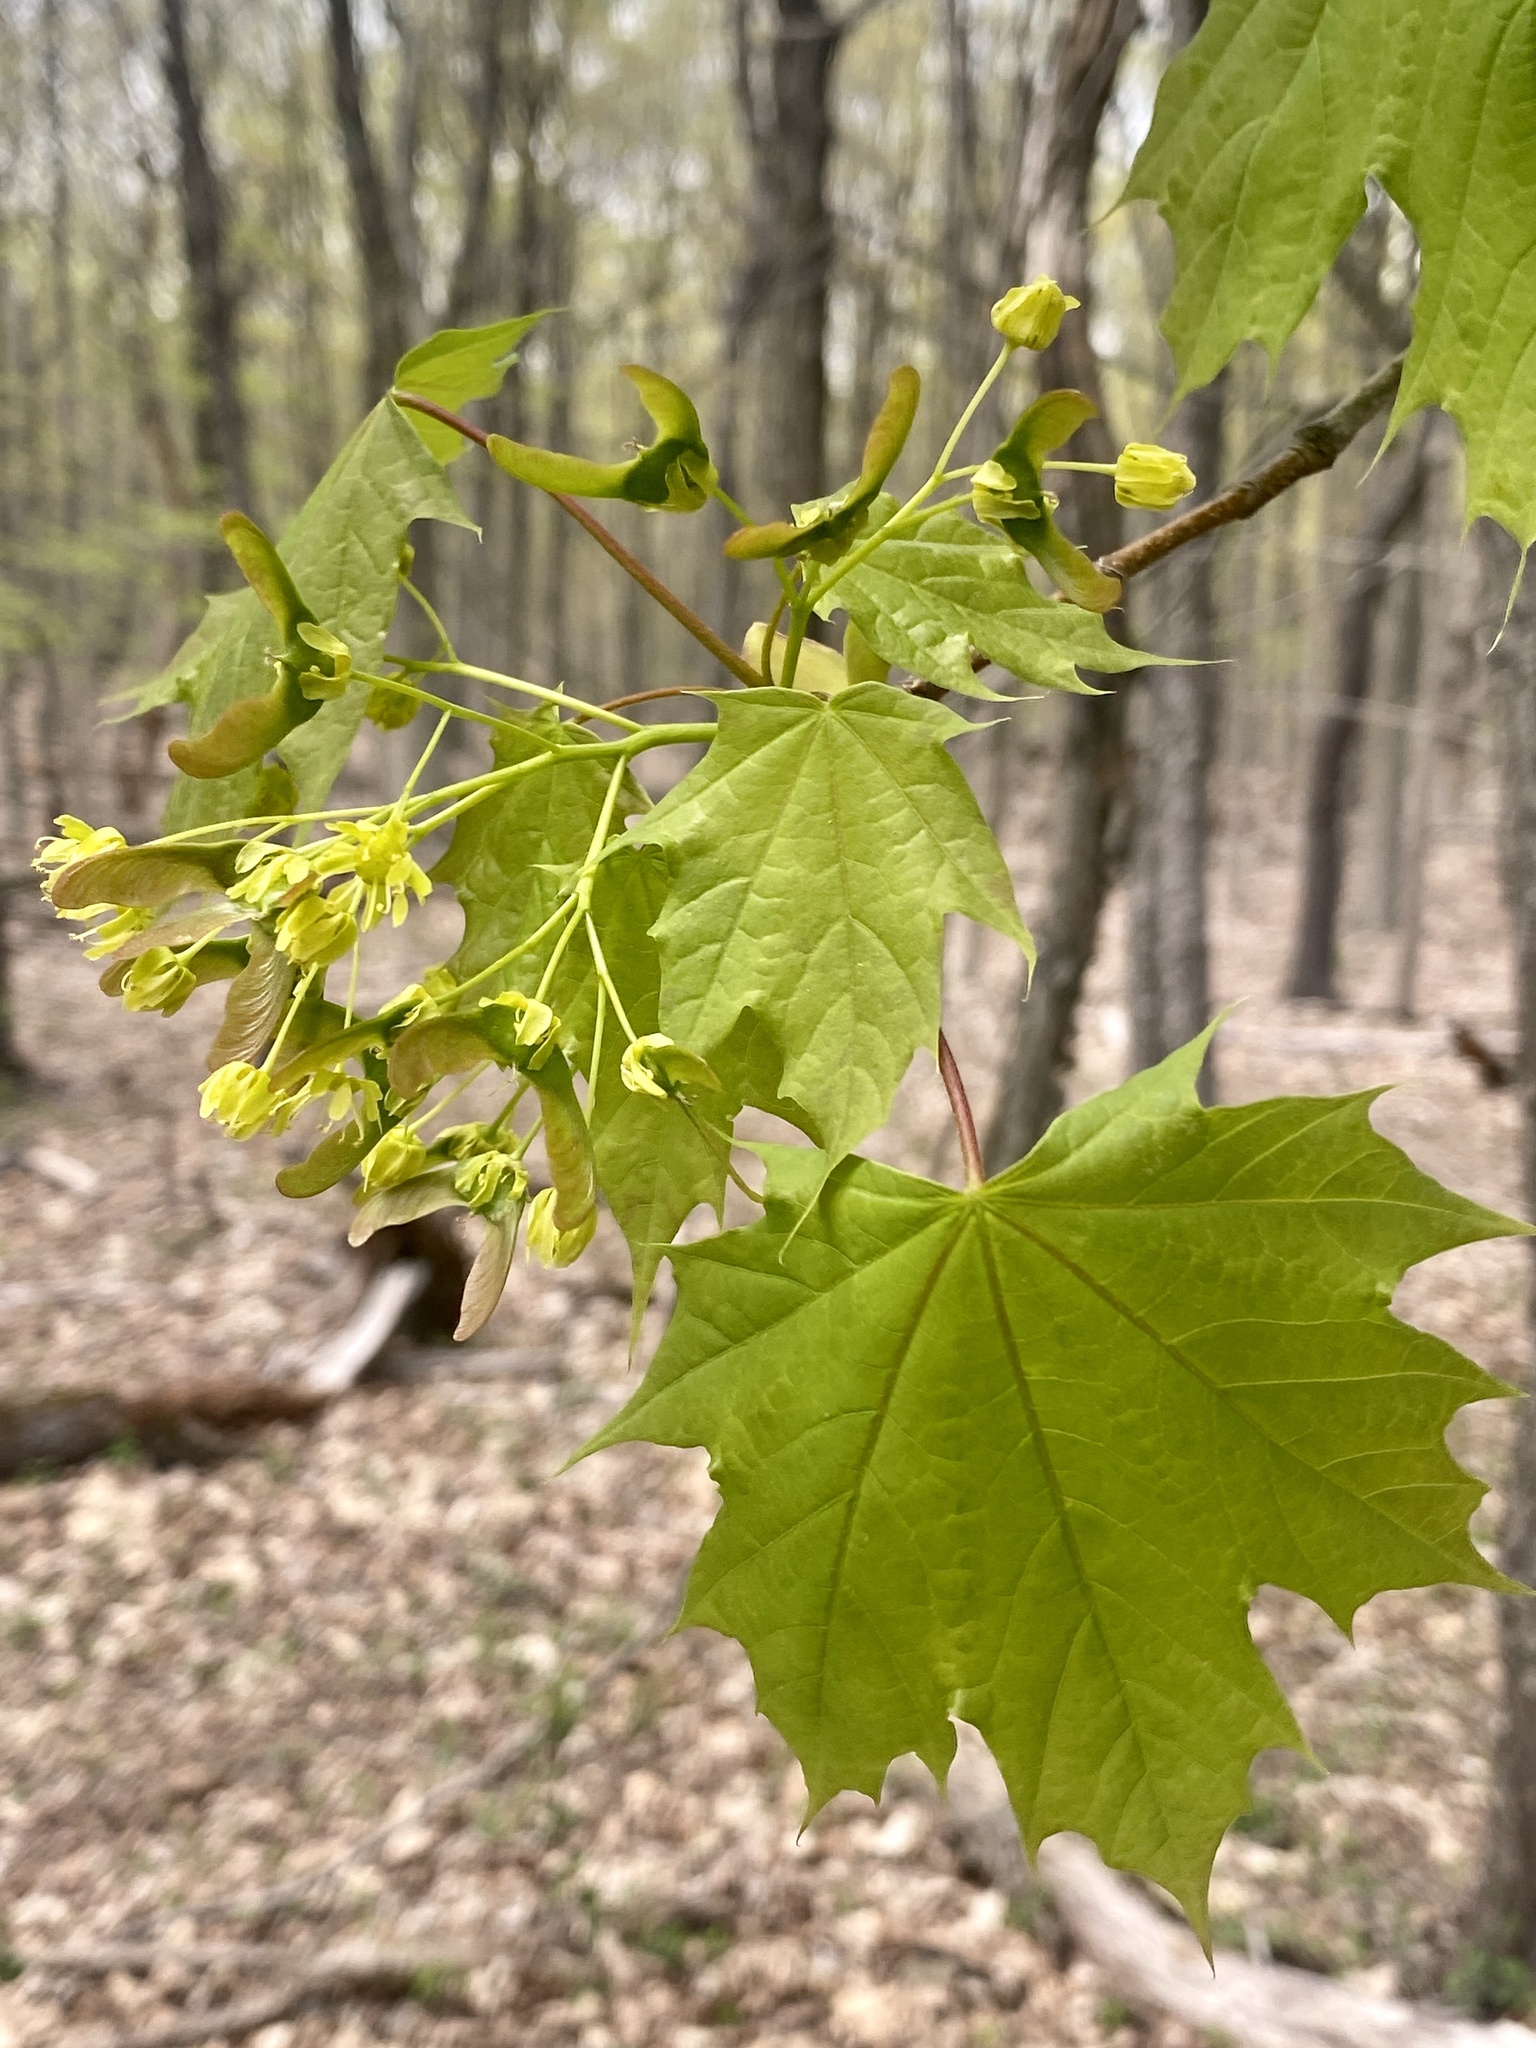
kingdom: Plantae
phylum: Tracheophyta
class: Magnoliopsida
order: Sapindales
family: Sapindaceae
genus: Acer
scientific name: Acer platanoides
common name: Norway maple
